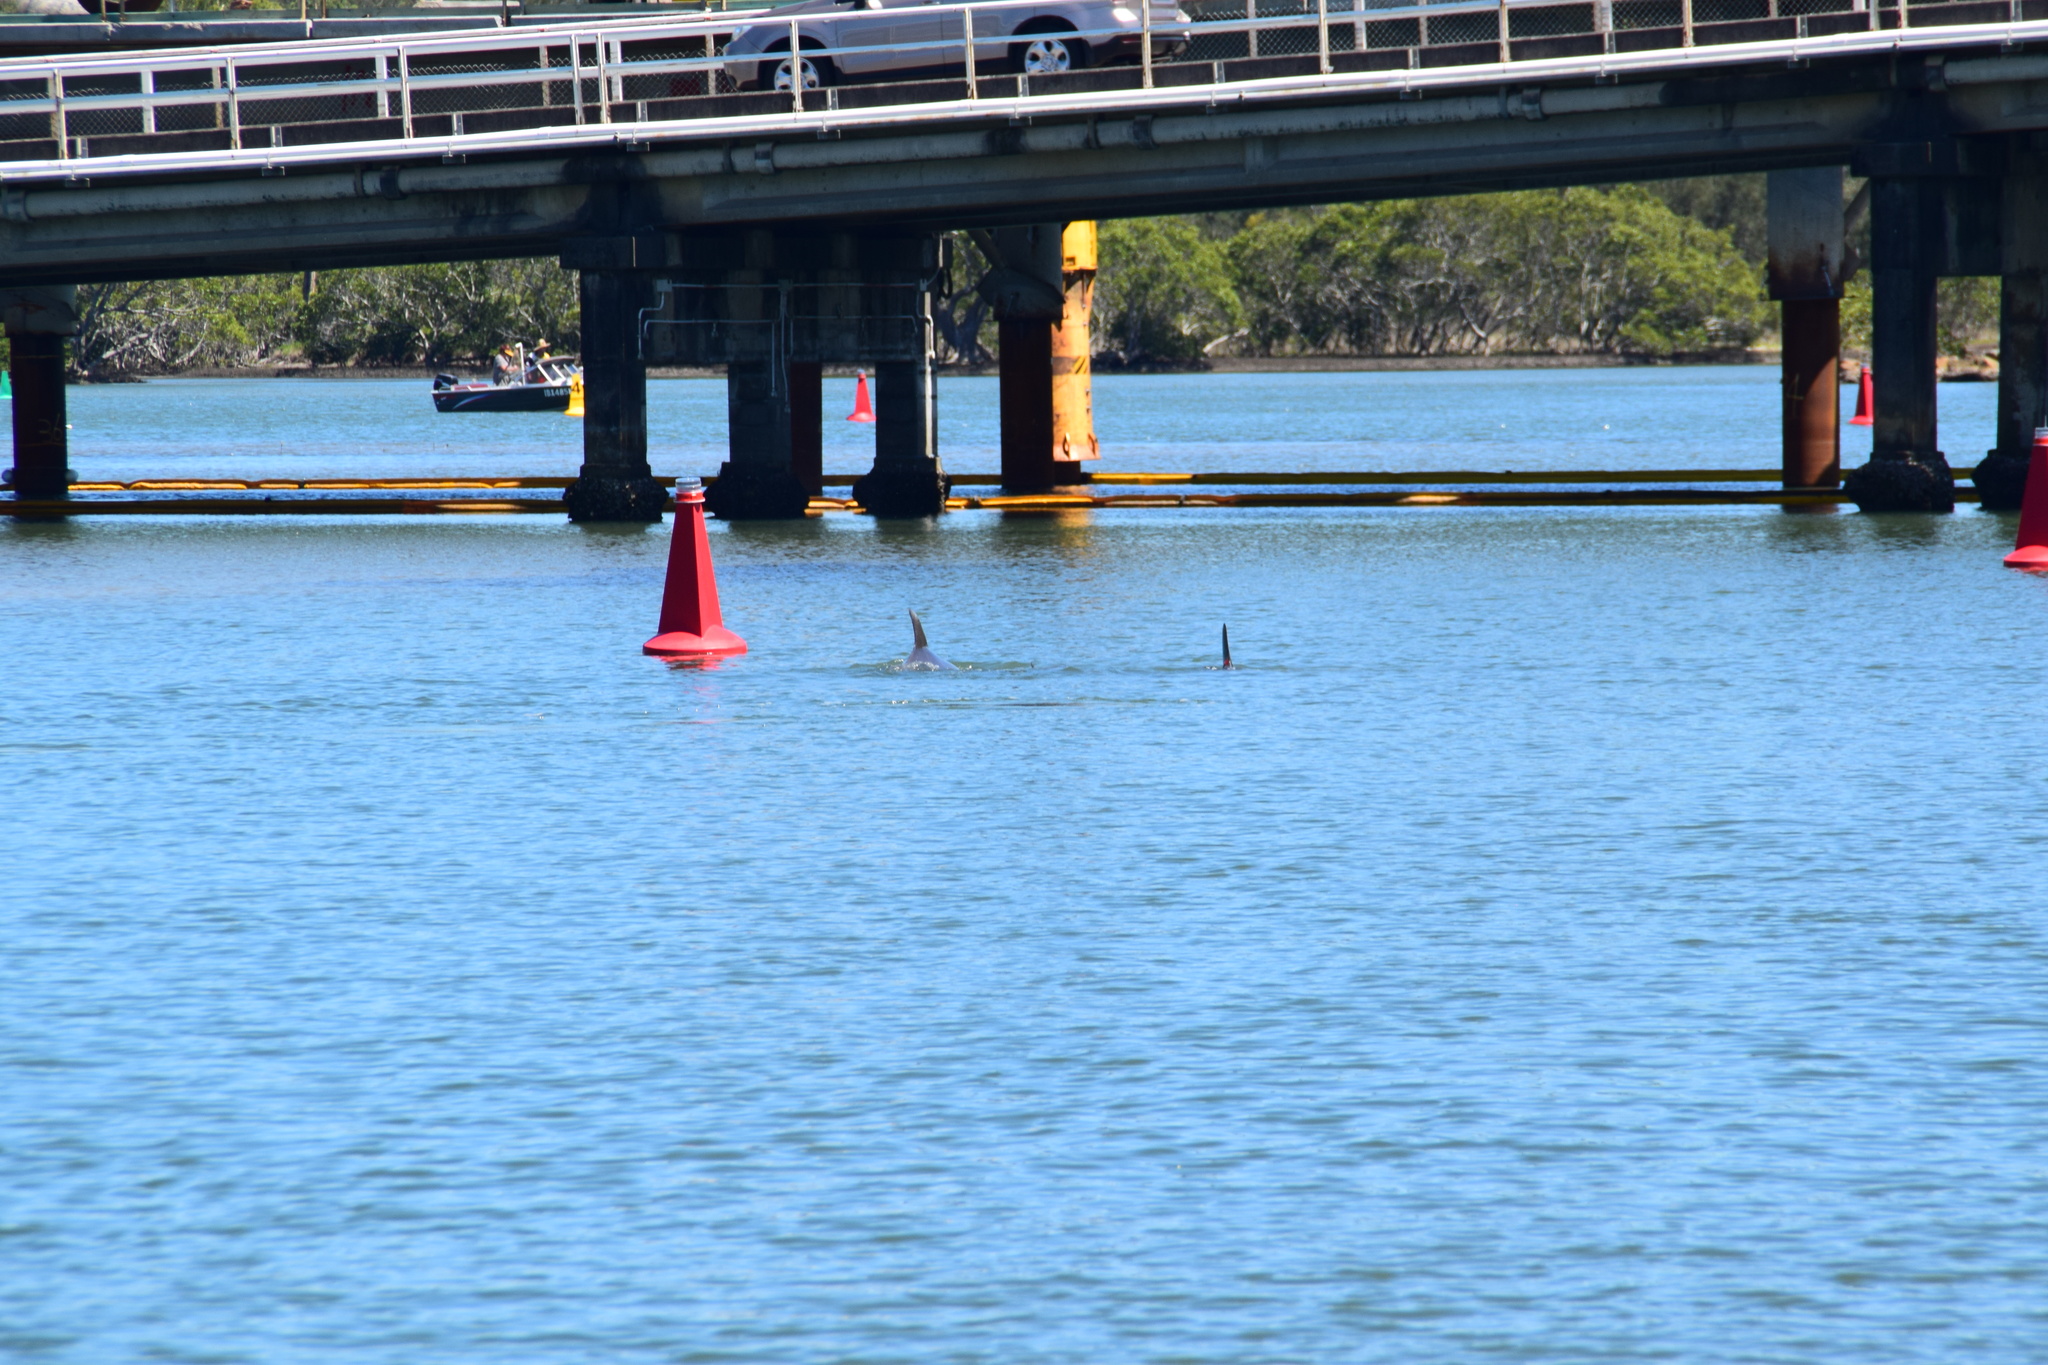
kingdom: Animalia
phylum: Chordata
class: Mammalia
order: Cetacea
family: Delphinidae
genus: Tursiops
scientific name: Tursiops aduncus
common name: Indo-pacific bottlenose dolphin
